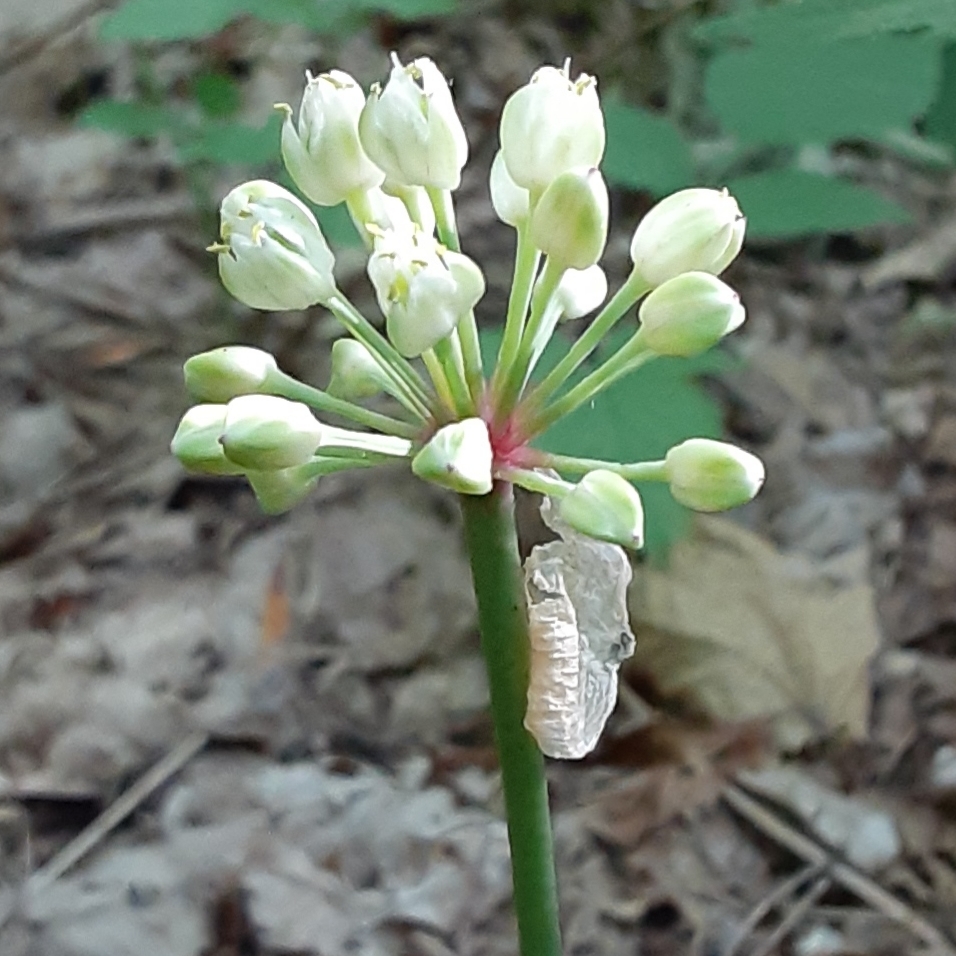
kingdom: Plantae
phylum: Tracheophyta
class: Liliopsida
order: Asparagales
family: Amaryllidaceae
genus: Allium
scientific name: Allium tricoccum
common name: Ramp
